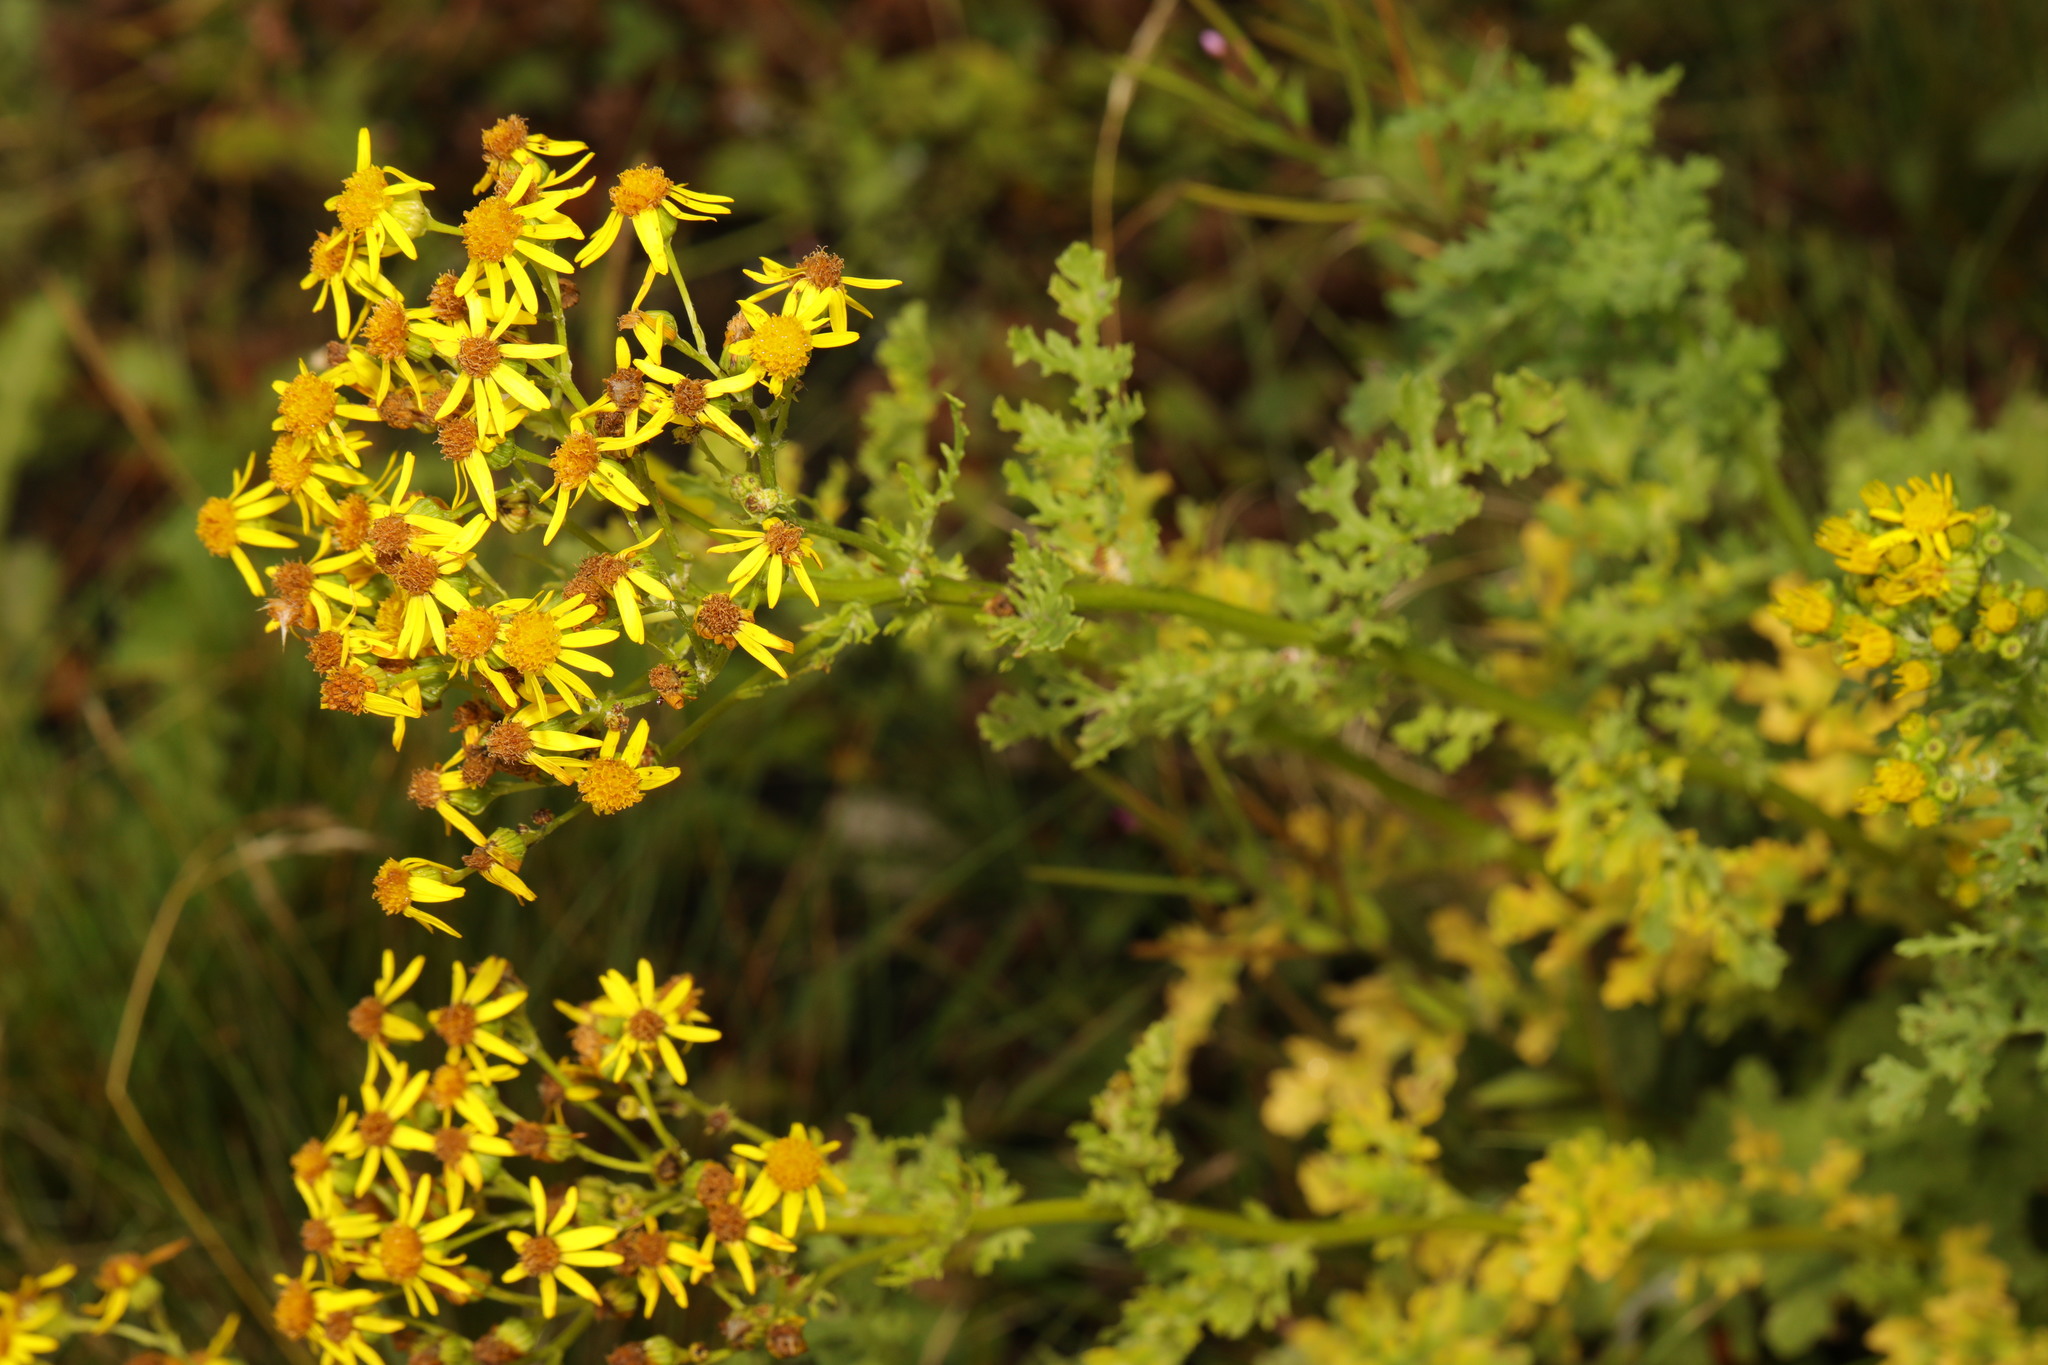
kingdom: Plantae
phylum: Tracheophyta
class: Magnoliopsida
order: Asterales
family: Asteraceae
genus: Jacobaea
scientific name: Jacobaea vulgaris
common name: Stinking willie
